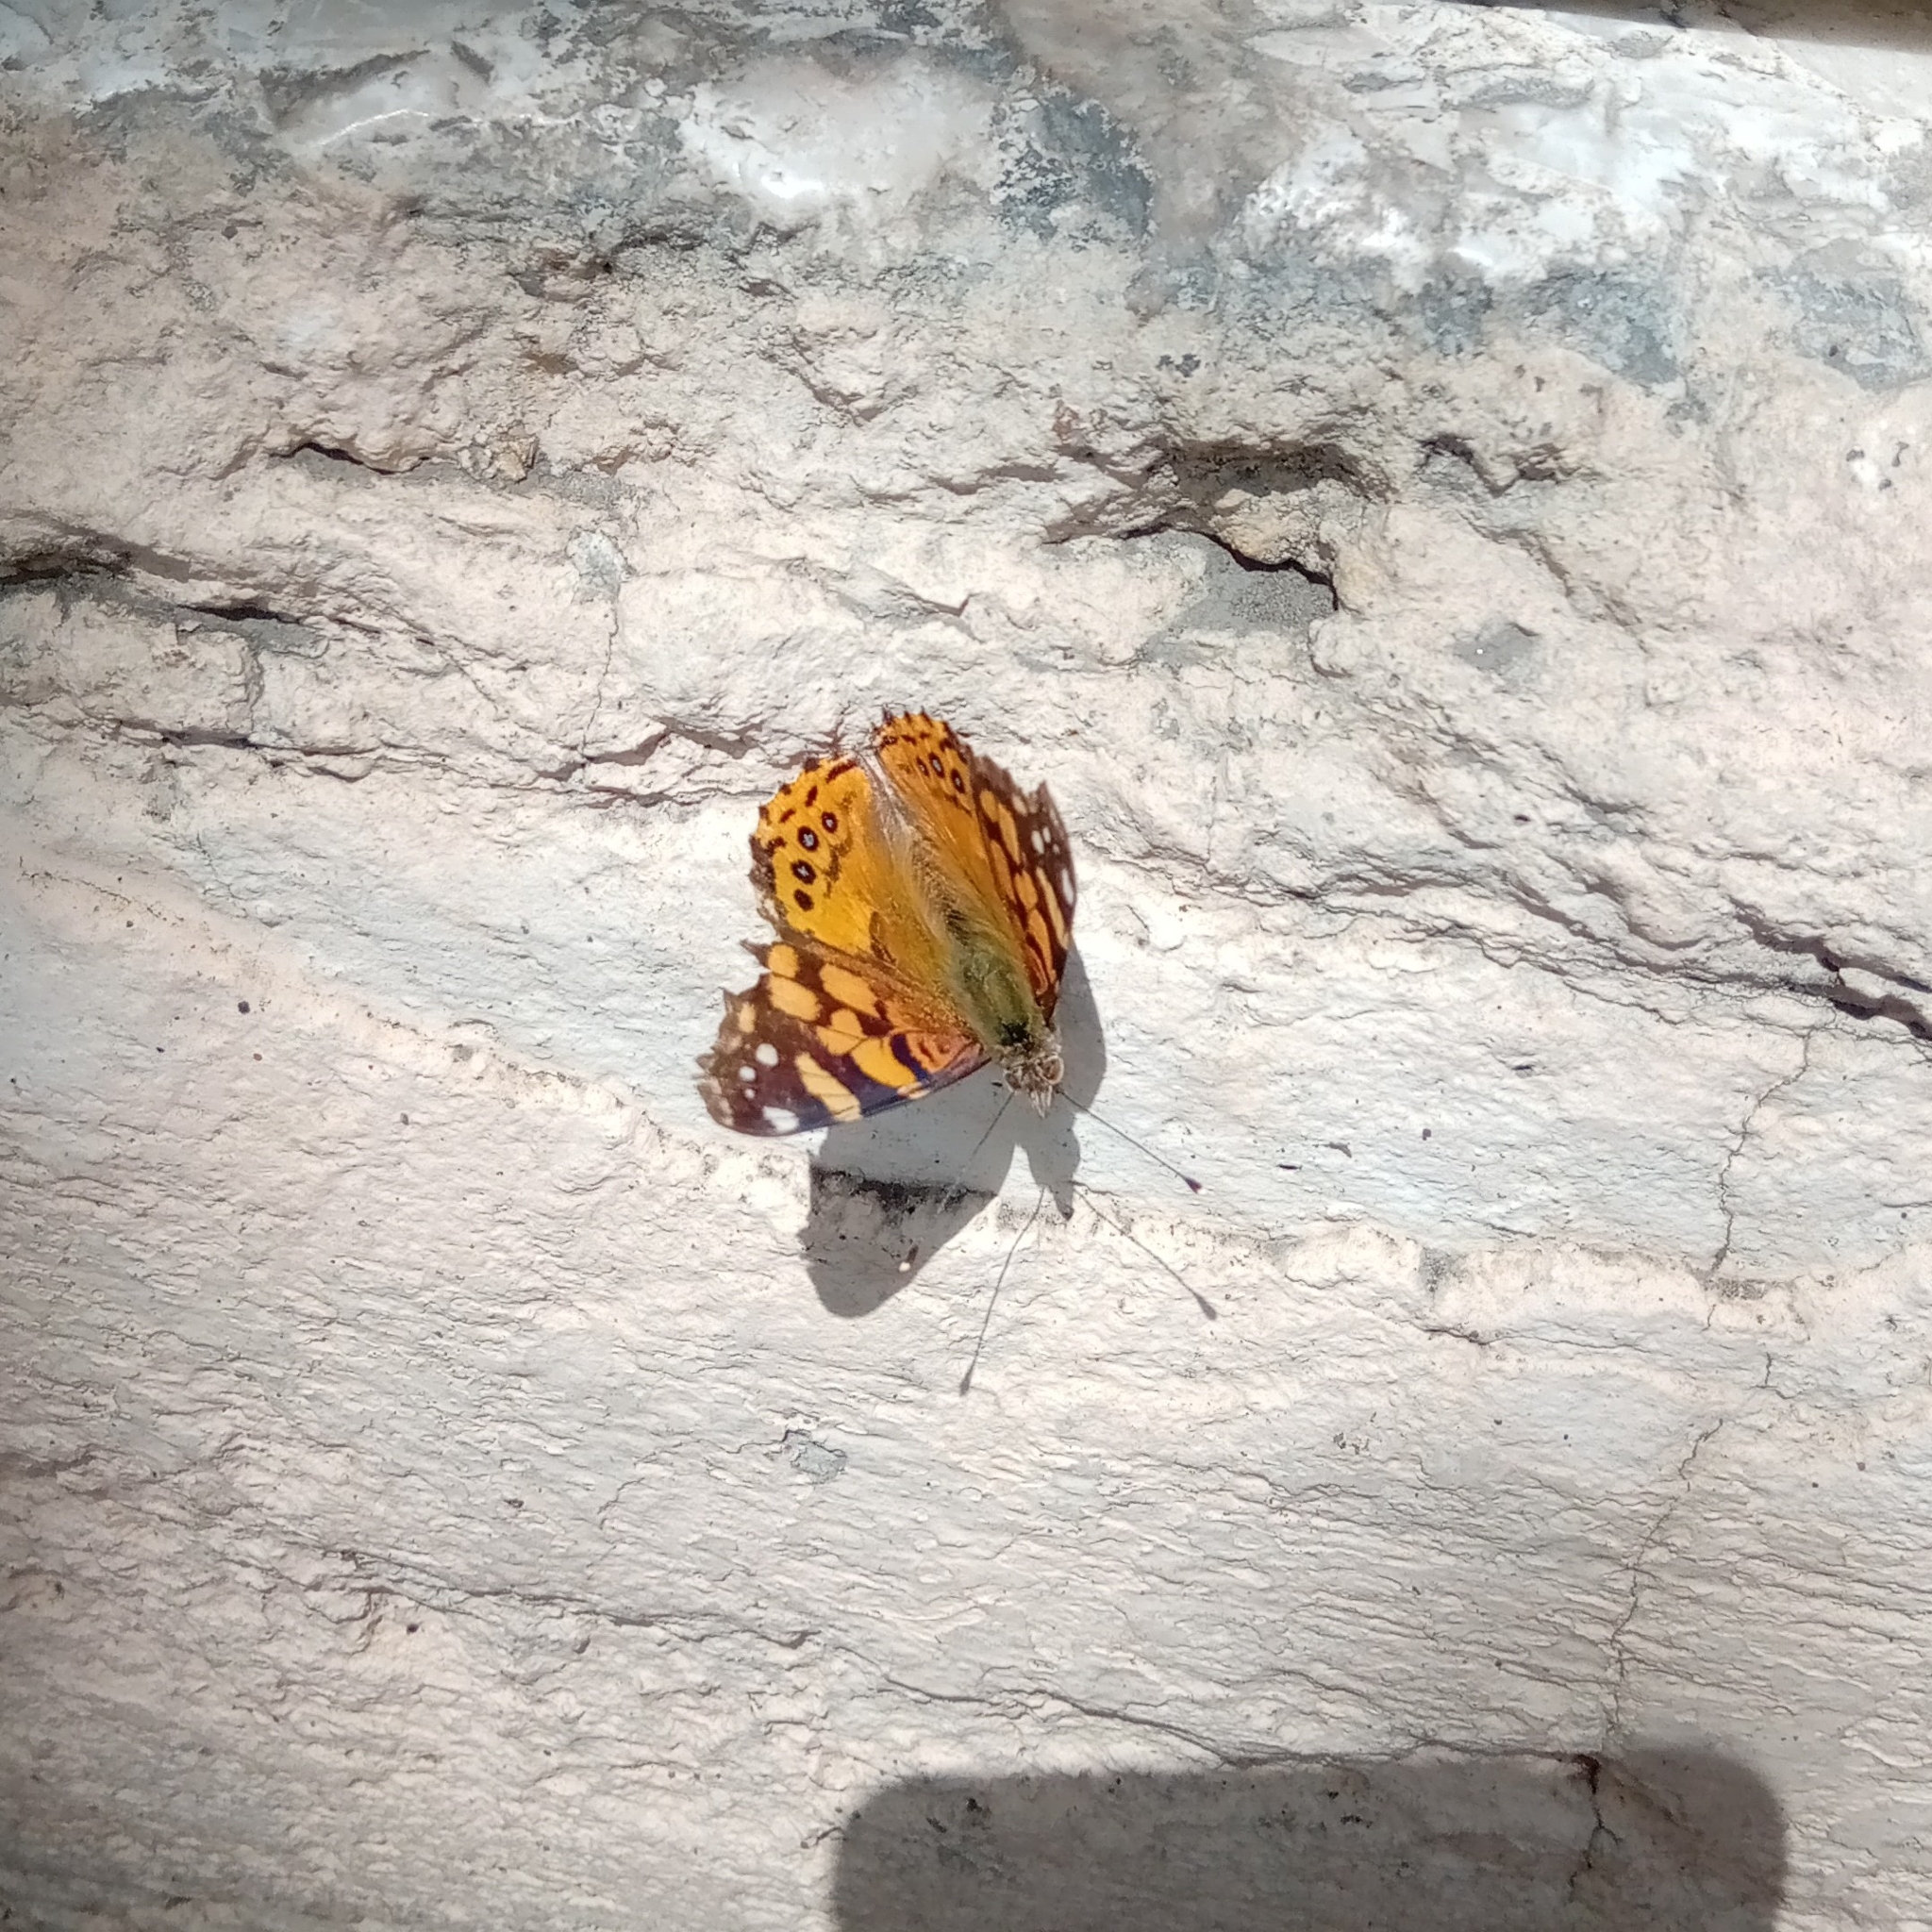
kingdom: Animalia
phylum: Arthropoda
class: Insecta
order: Lepidoptera
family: Nymphalidae
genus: Vanessa
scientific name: Vanessa annabella
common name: West coast lady
